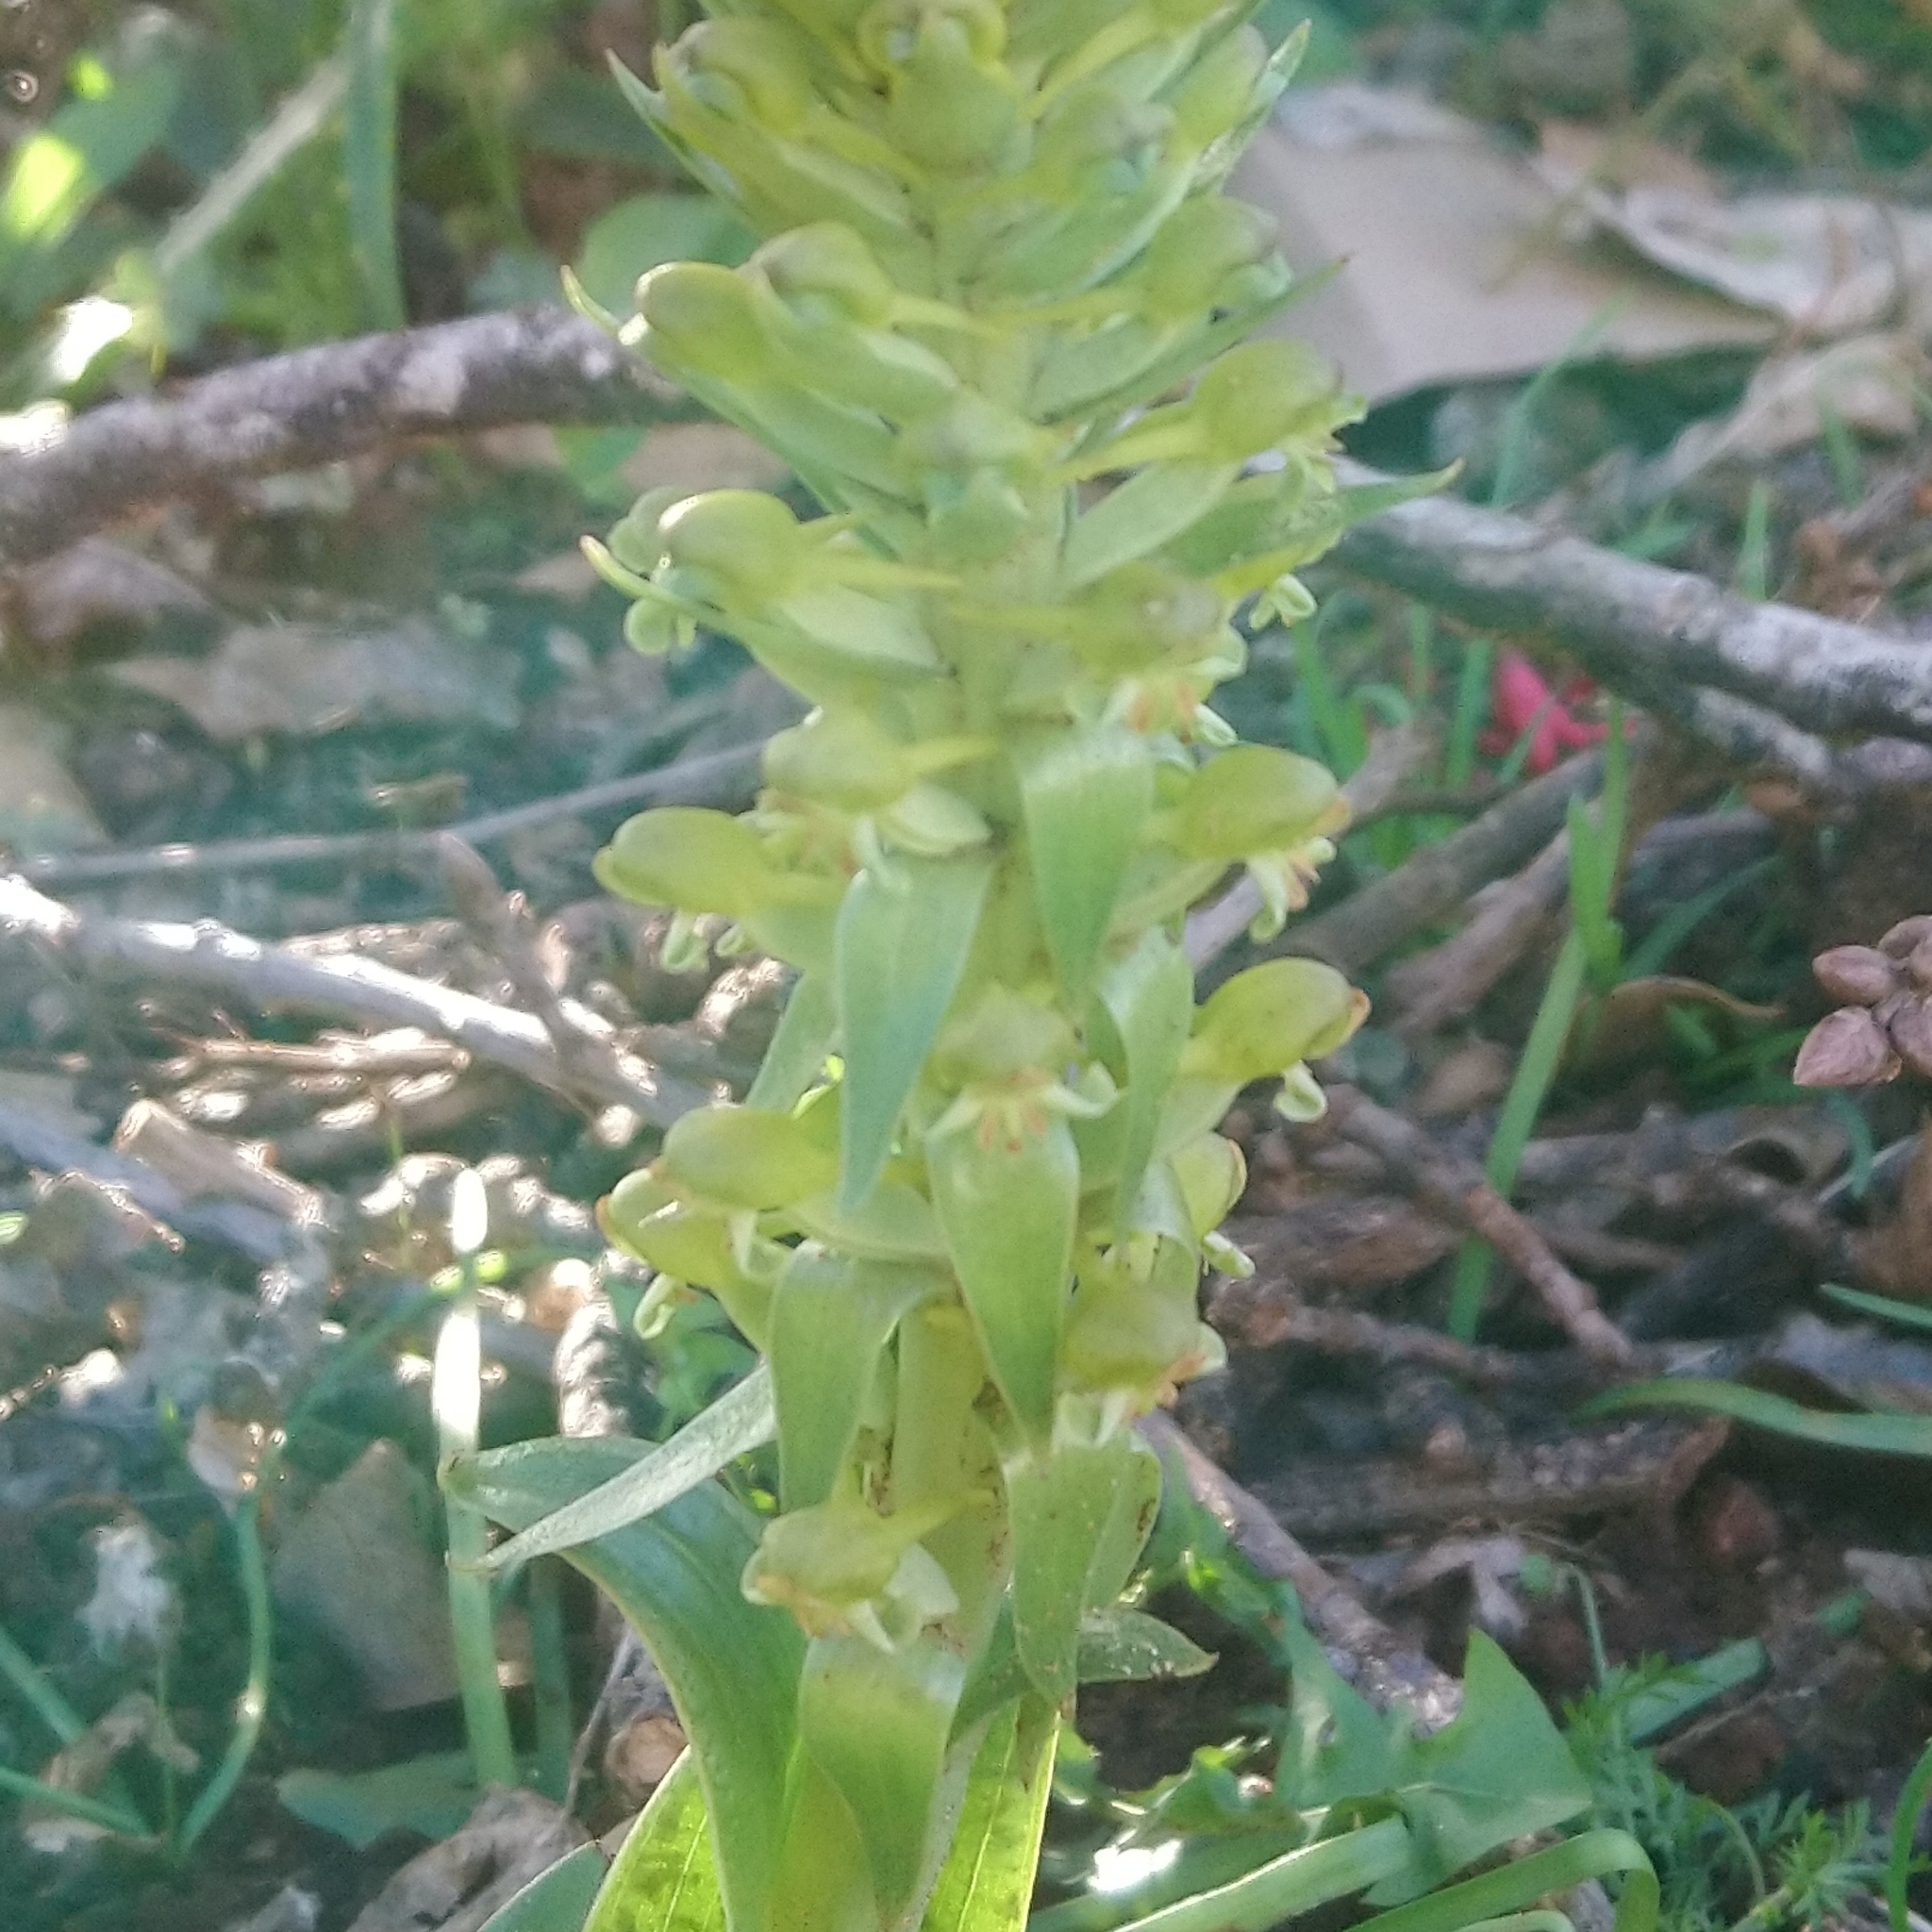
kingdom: Plantae
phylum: Tracheophyta
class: Liliopsida
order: Asparagales
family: Orchidaceae
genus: Satyrium
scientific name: Satyrium parviflorum
